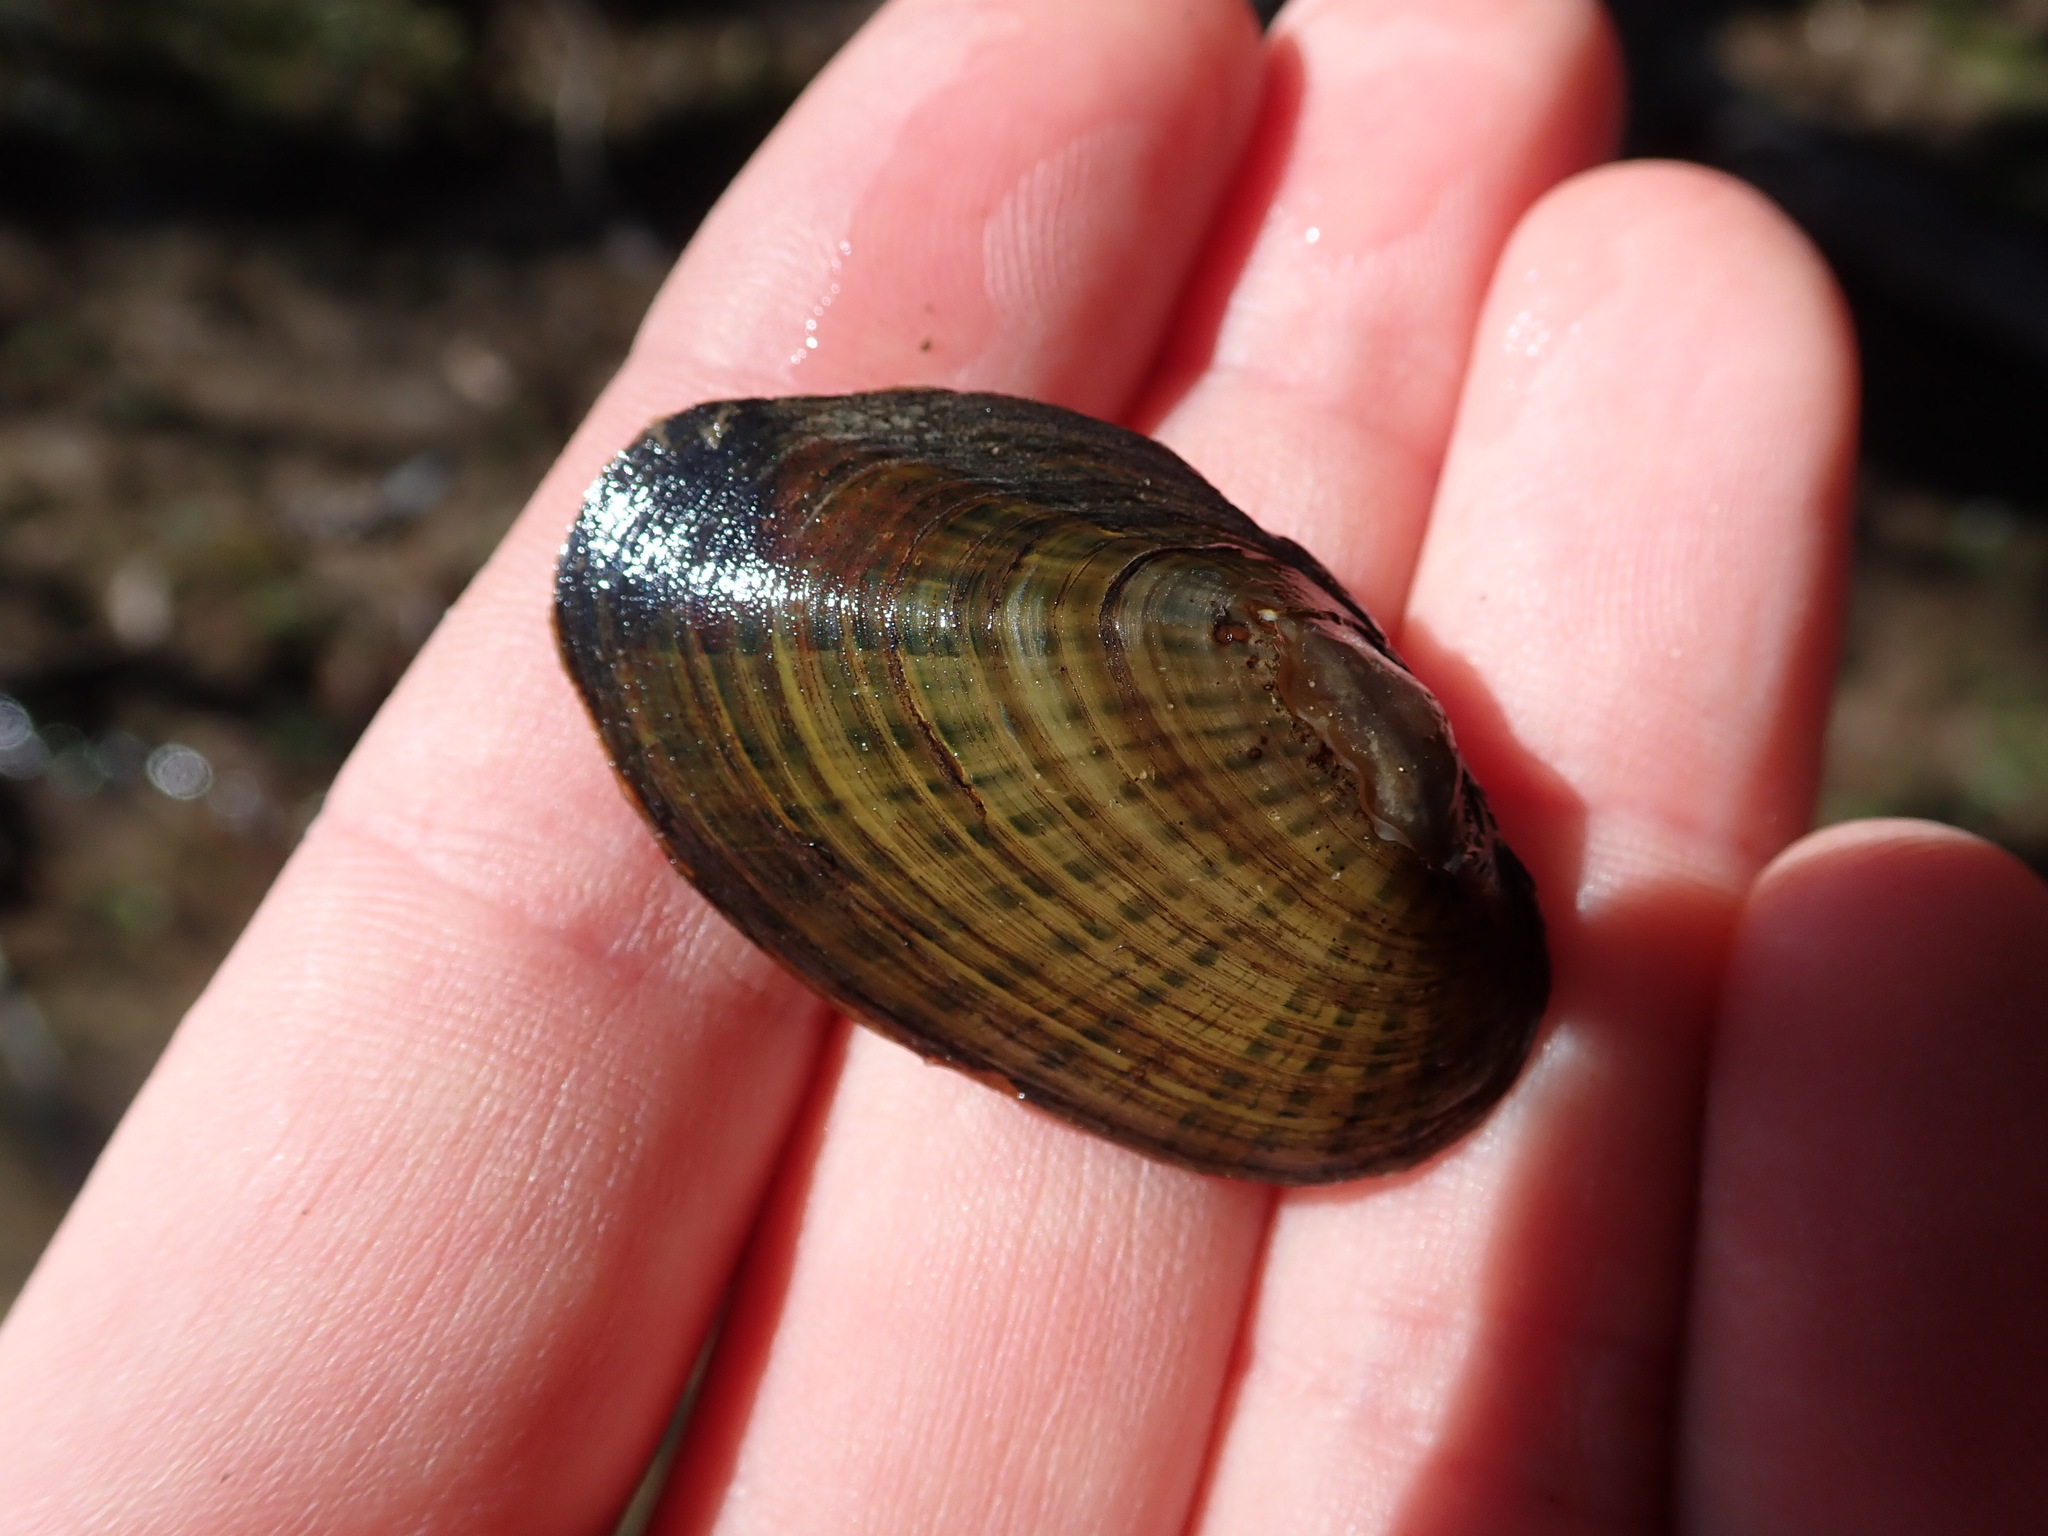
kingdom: Animalia
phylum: Mollusca
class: Bivalvia
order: Unionida
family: Unionidae
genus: Cambarunio
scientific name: Cambarunio iris
